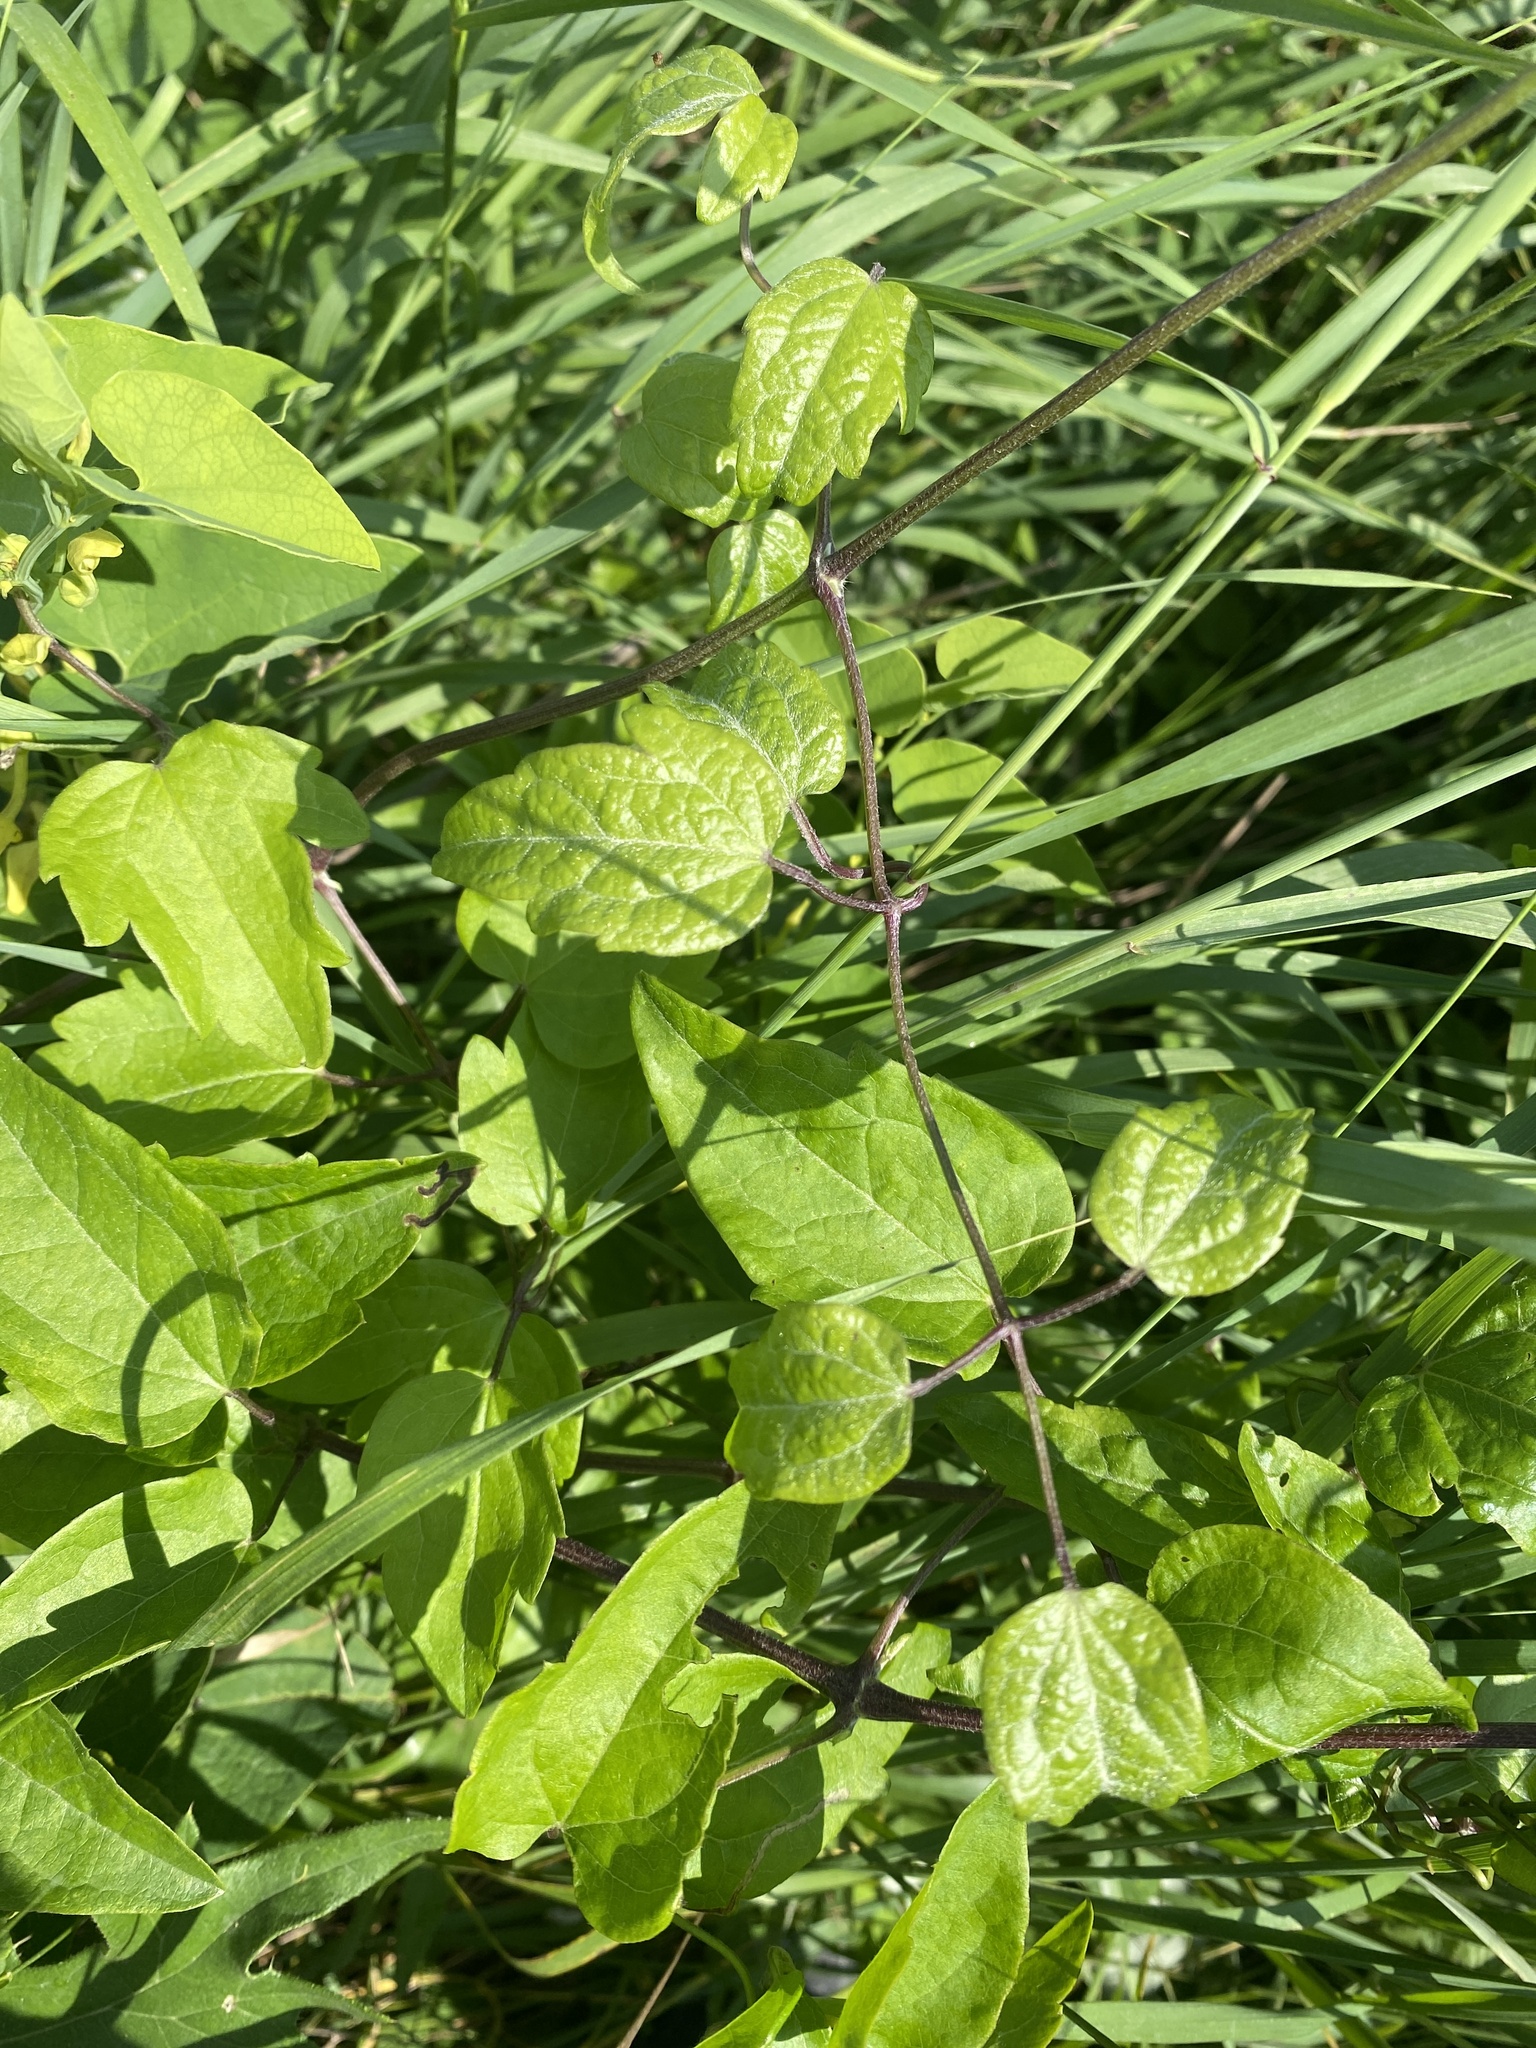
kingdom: Plantae
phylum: Tracheophyta
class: Magnoliopsida
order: Ranunculales
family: Ranunculaceae
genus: Clematis
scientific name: Clematis vitalba
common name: Evergreen clematis
